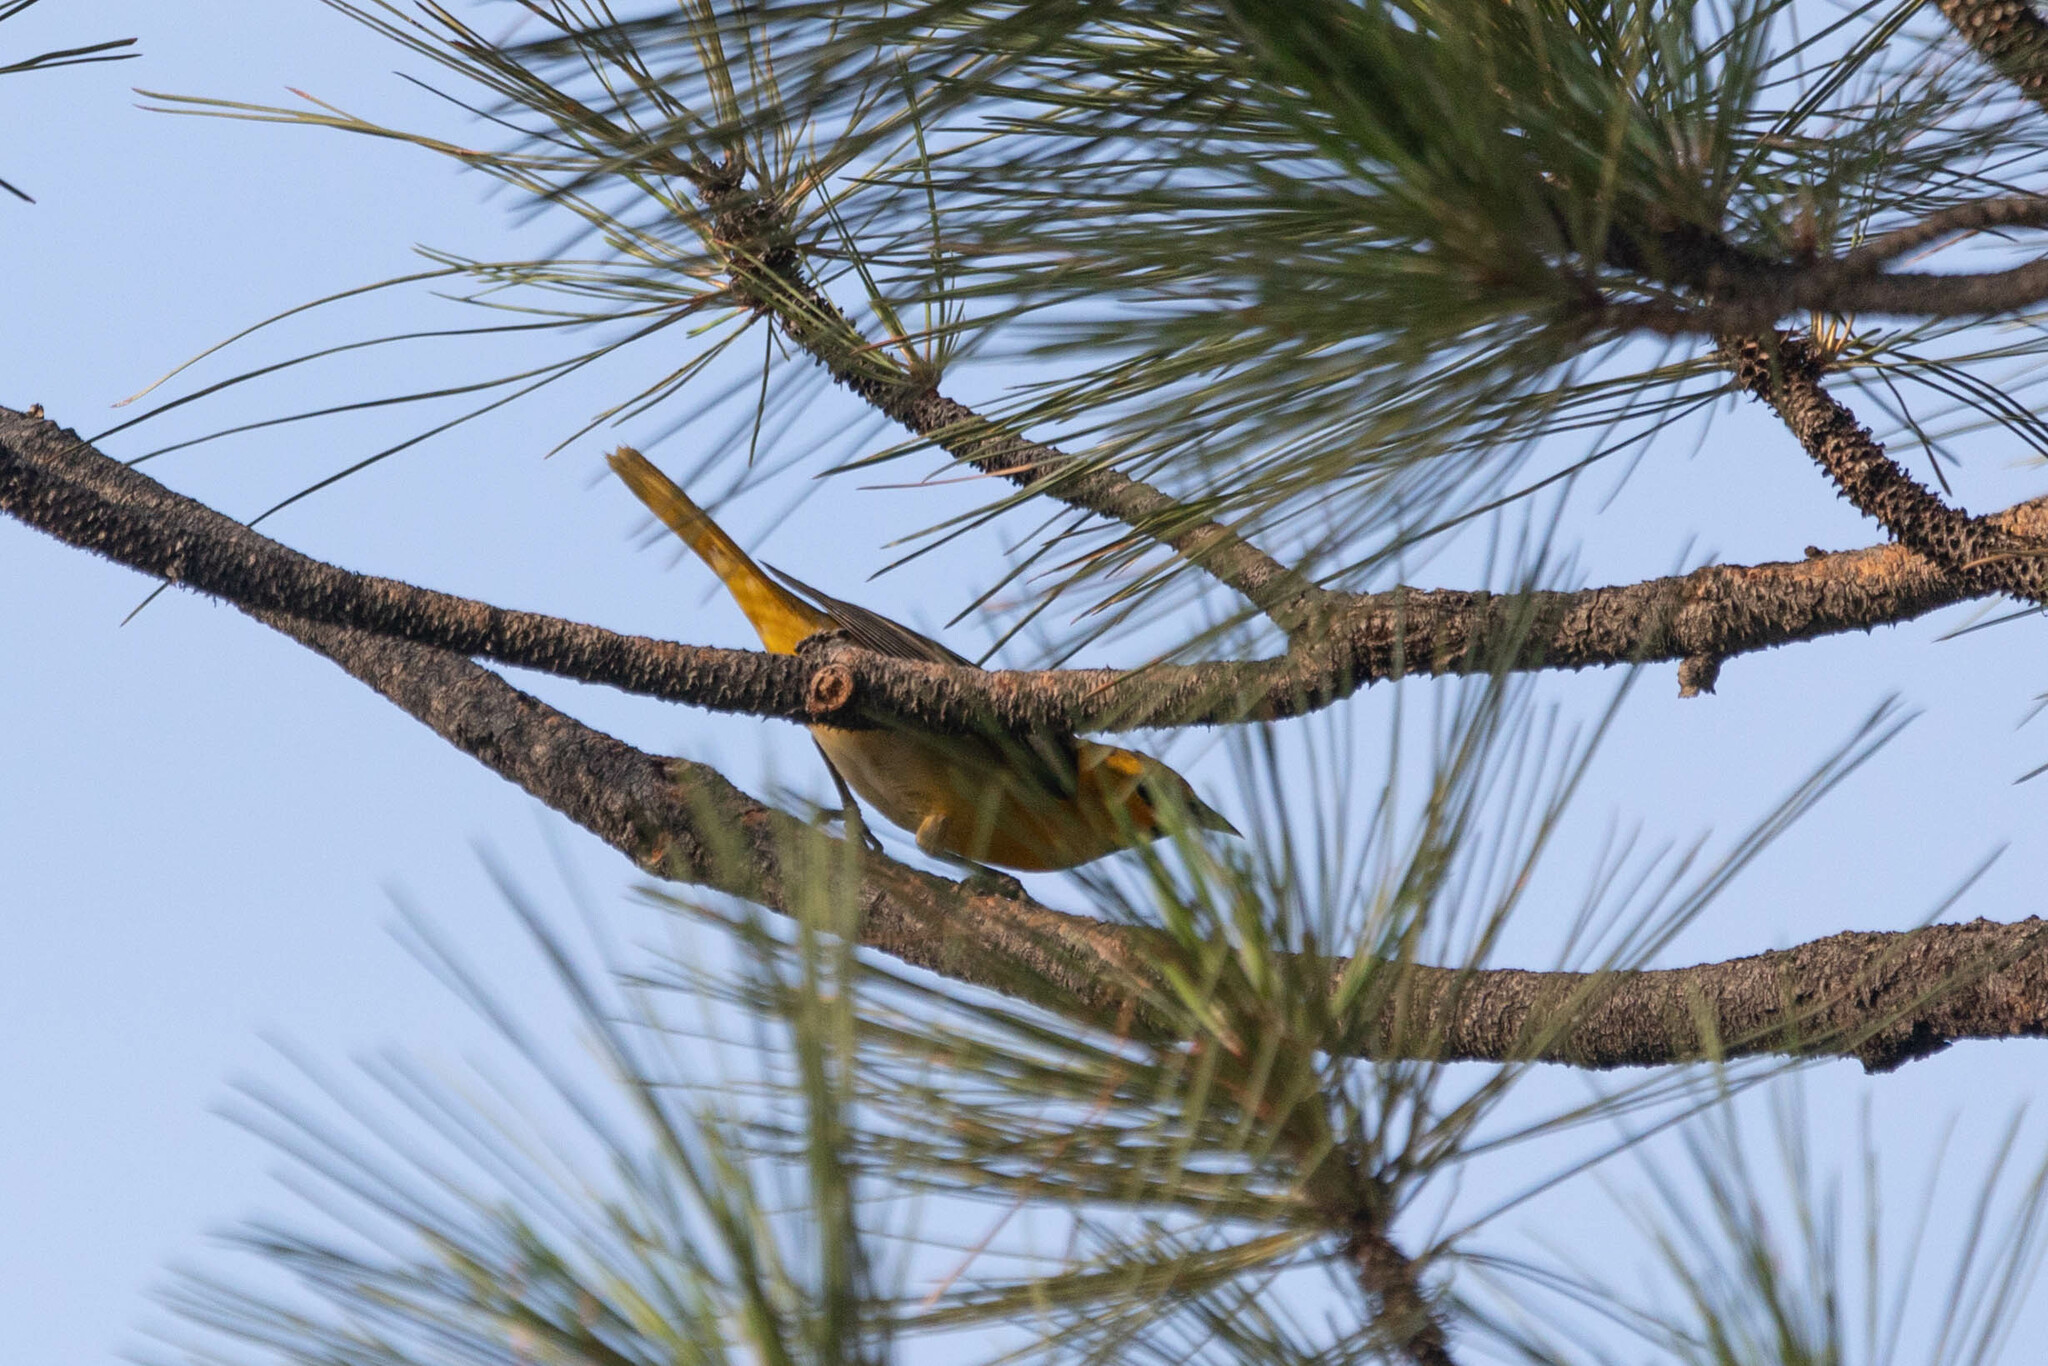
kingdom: Animalia
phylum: Chordata
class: Aves
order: Passeriformes
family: Icteridae
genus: Icterus
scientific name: Icterus bullockii
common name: Bullock's oriole
